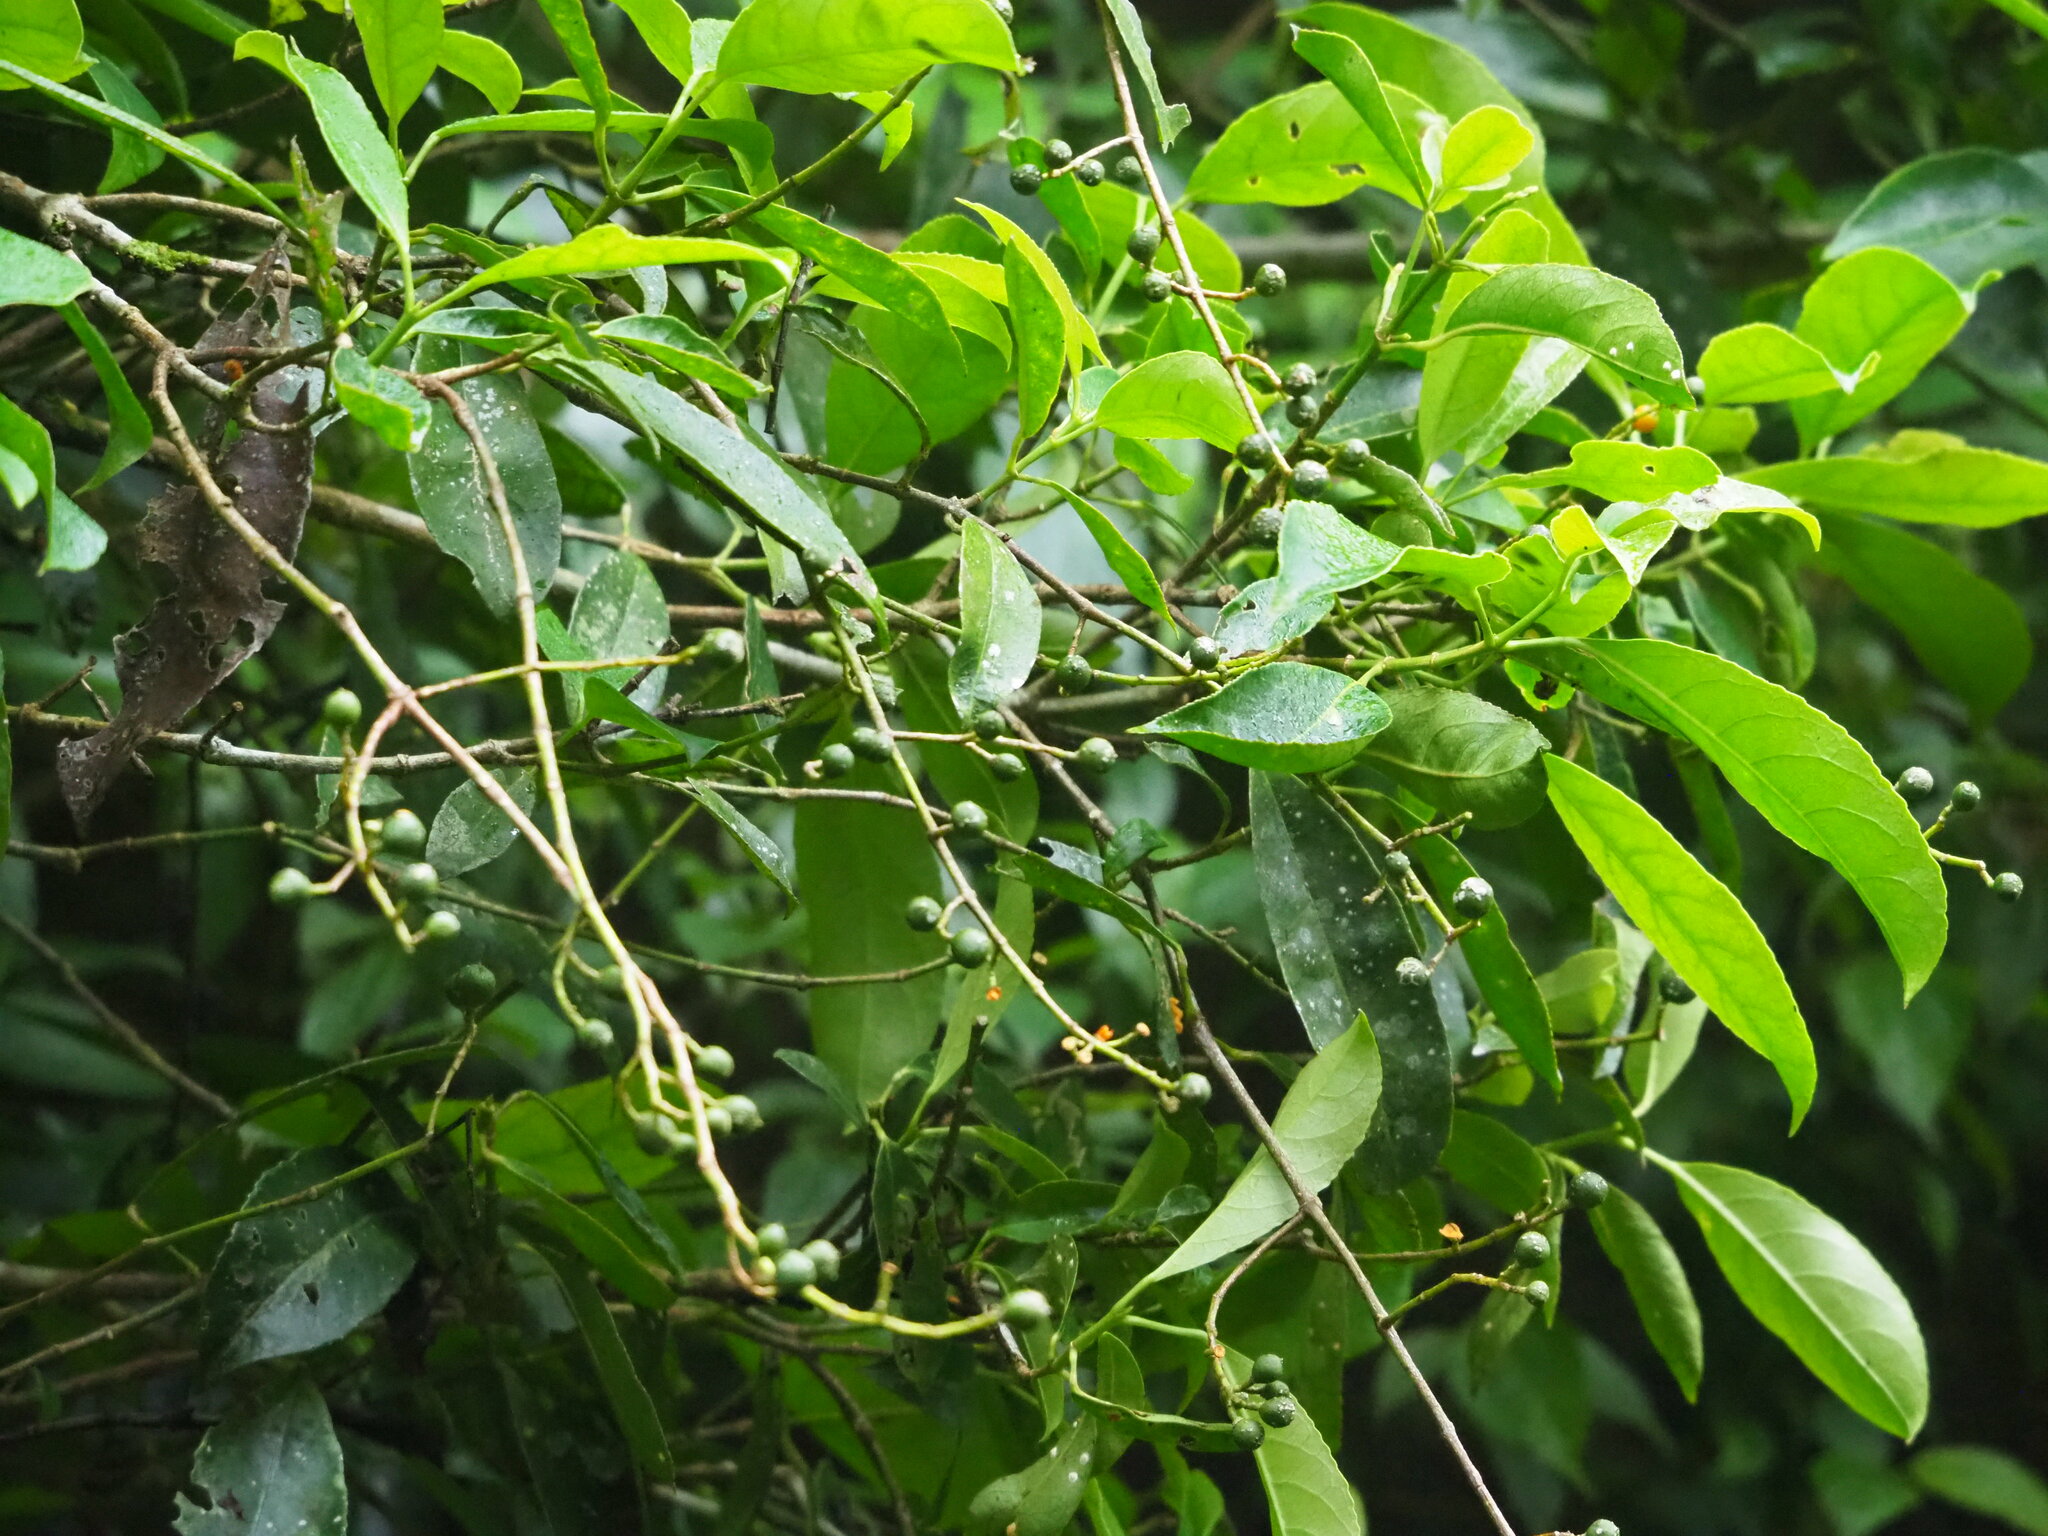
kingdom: Plantae
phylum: Tracheophyta
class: Magnoliopsida
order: Crossosomatales
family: Staphyleaceae
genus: Turpinia
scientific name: Turpinia formosana
